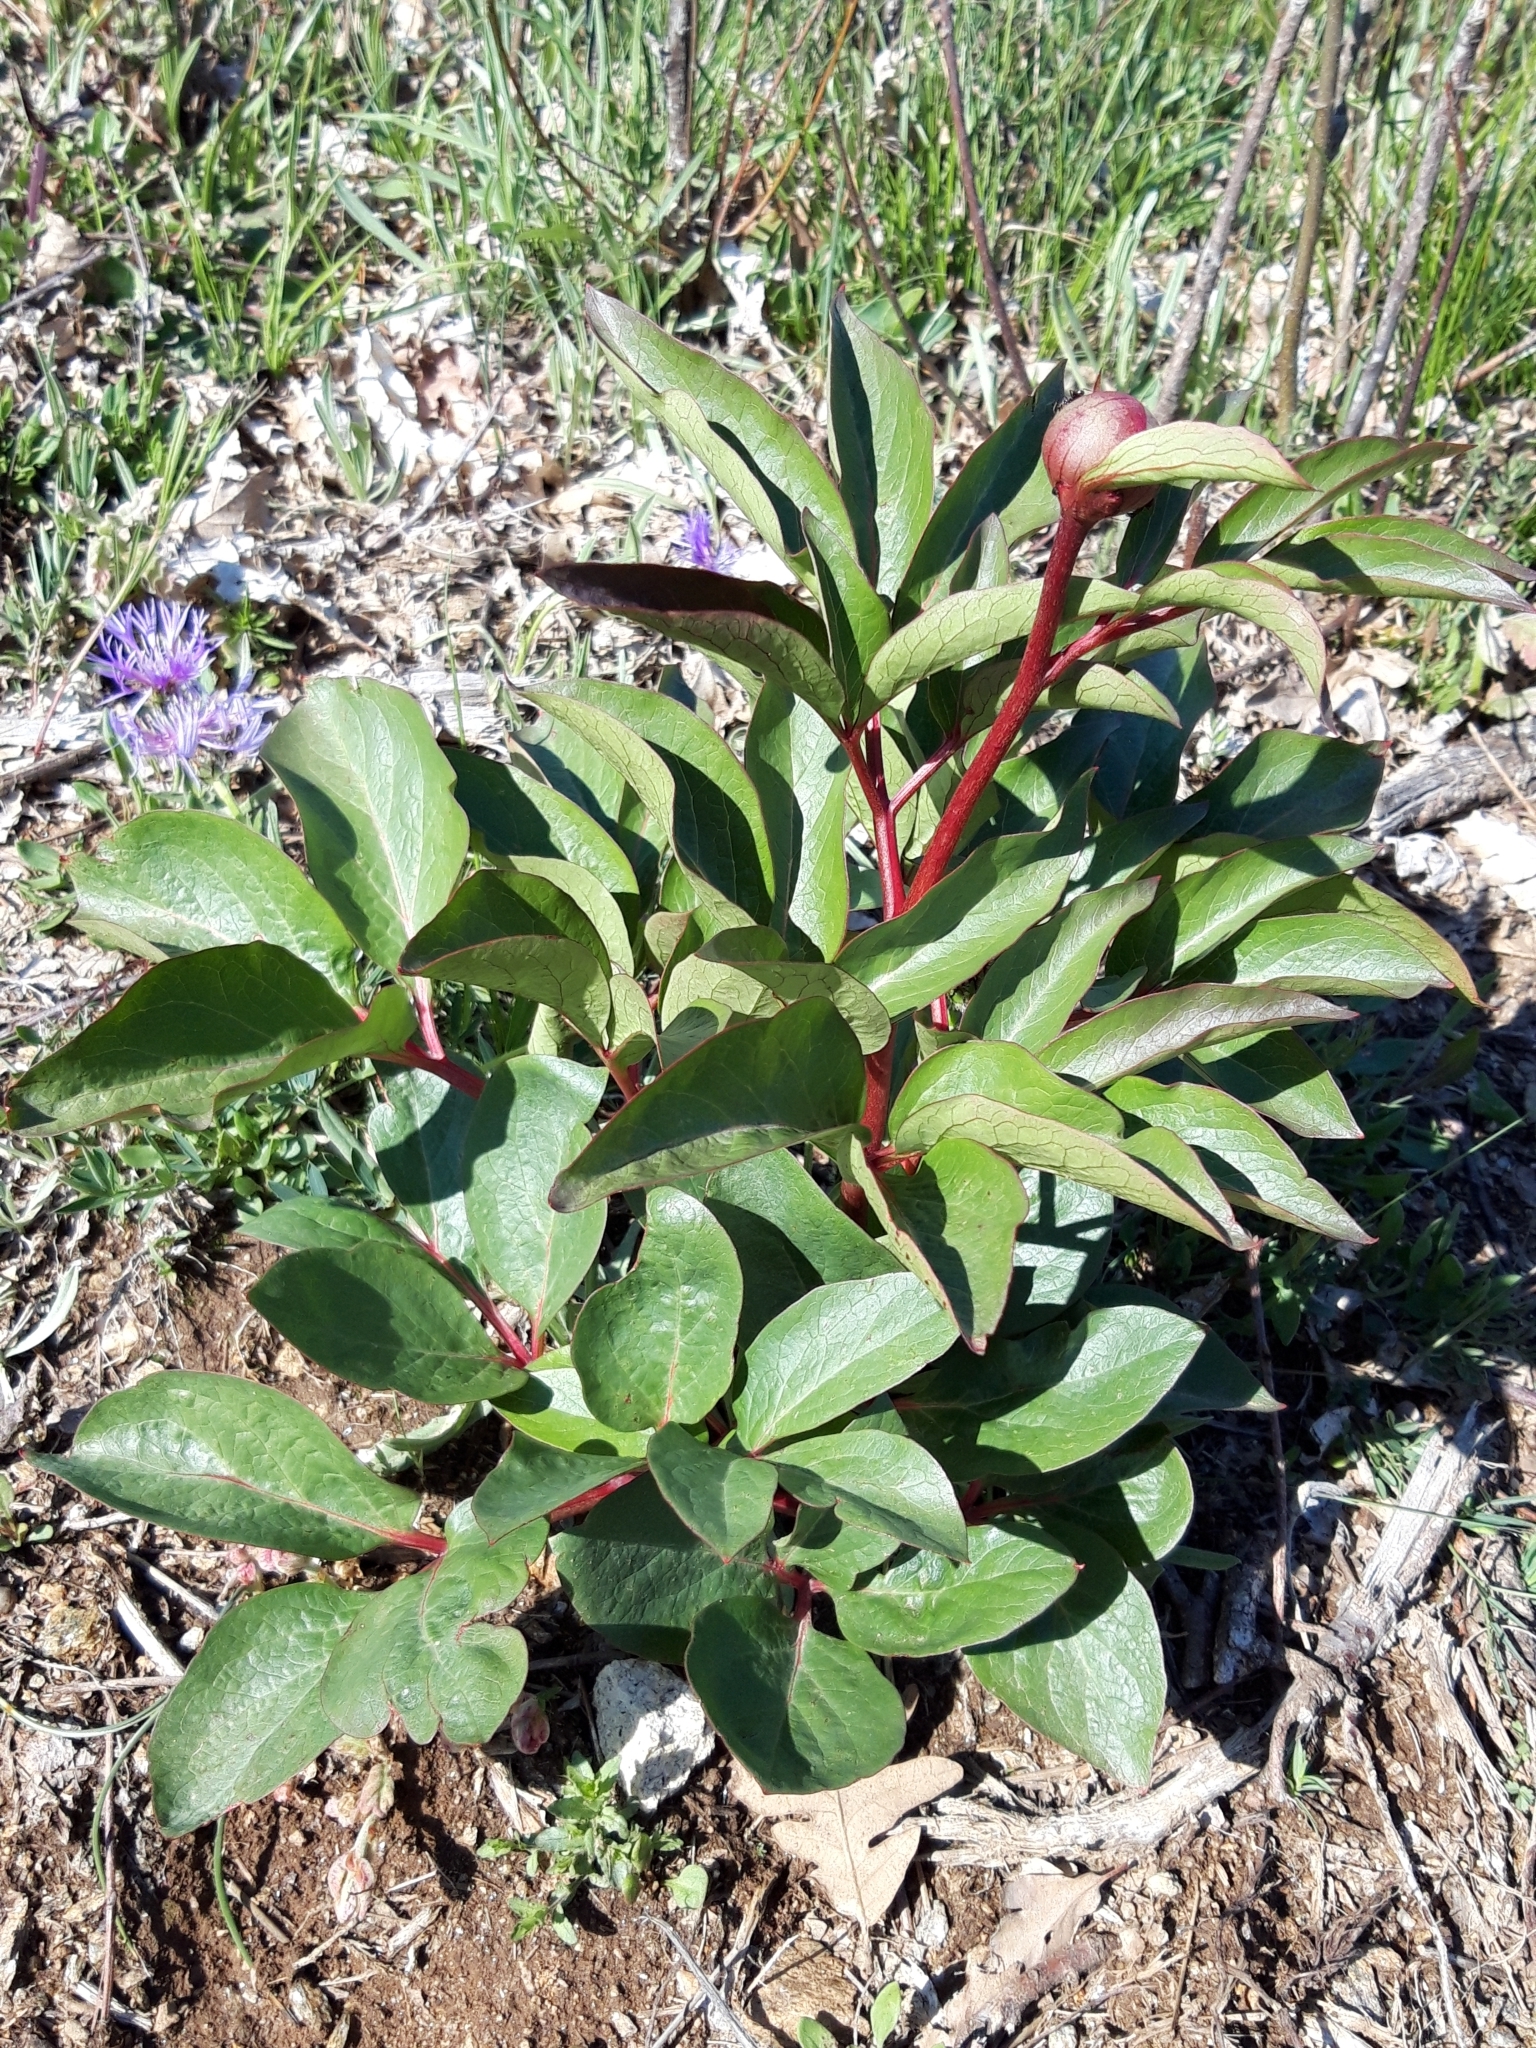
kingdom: Plantae
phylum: Tracheophyta
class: Magnoliopsida
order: Saxifragales
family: Paeoniaceae
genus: Paeonia
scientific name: Paeonia broteroi
